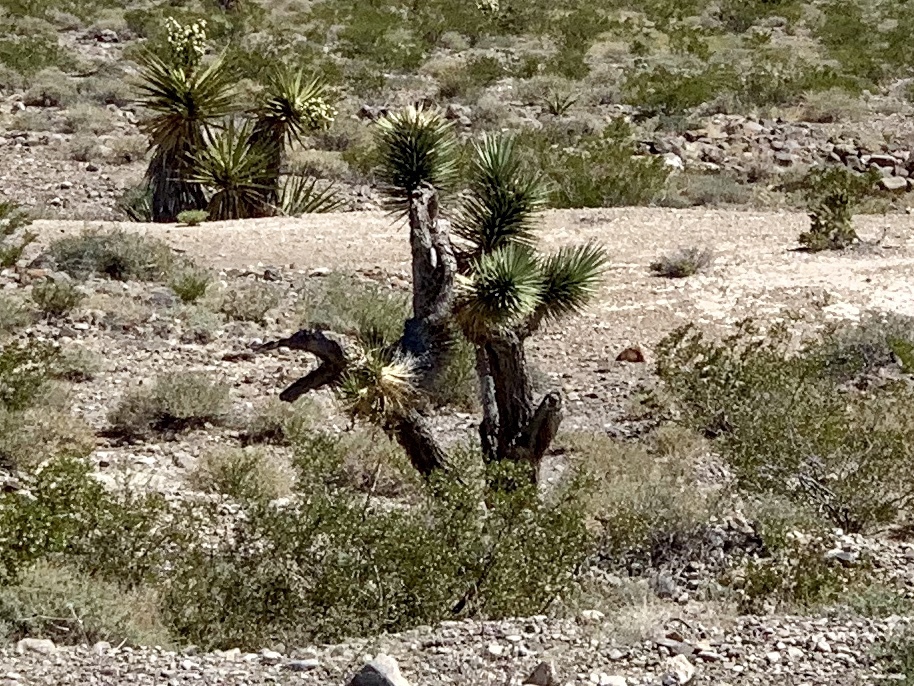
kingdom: Plantae
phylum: Tracheophyta
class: Liliopsida
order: Asparagales
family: Asparagaceae
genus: Yucca
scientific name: Yucca brevifolia
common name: Joshua tree
